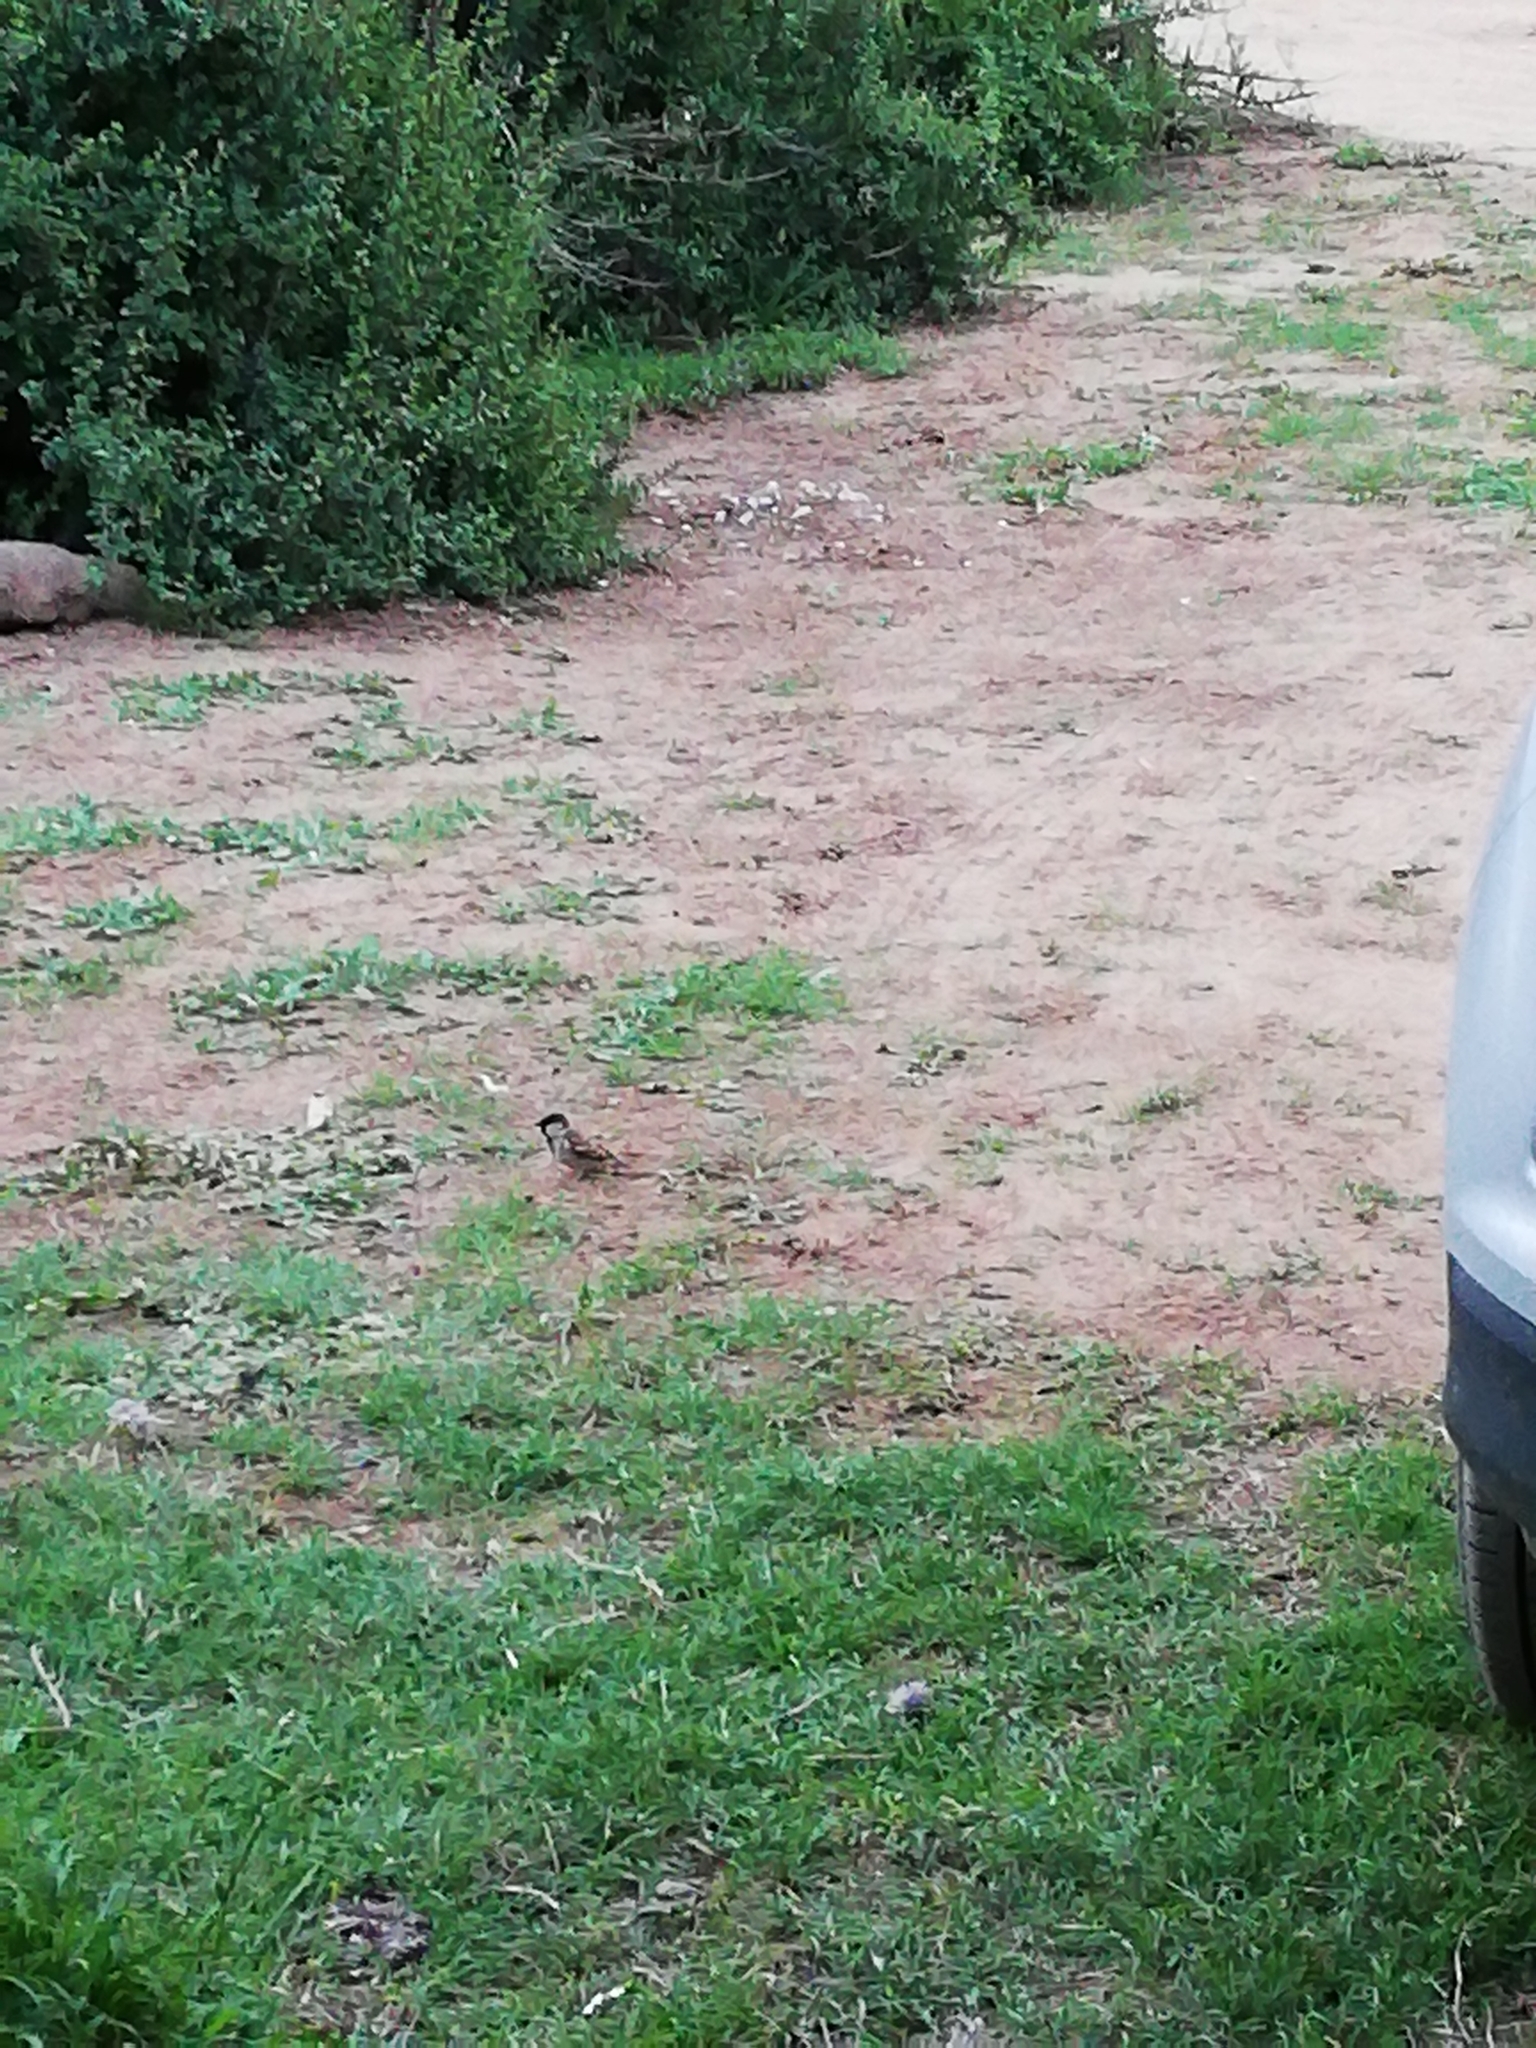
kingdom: Animalia
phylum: Chordata
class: Aves
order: Passeriformes
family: Passeridae
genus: Passer
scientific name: Passer domesticus
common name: House sparrow
